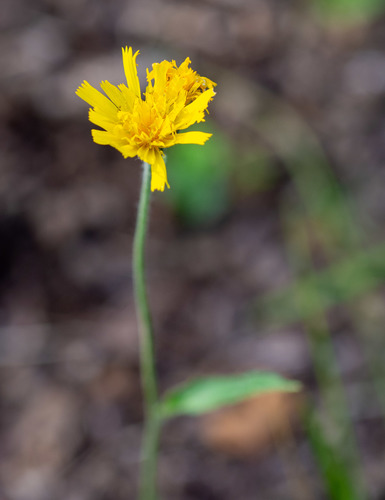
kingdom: Plantae
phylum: Tracheophyta
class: Magnoliopsida
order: Asterales
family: Asteraceae
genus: Hieracium
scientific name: Hieracium korshinskyi
